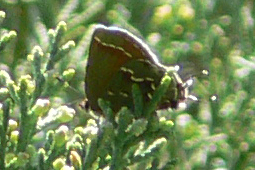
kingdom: Animalia
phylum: Arthropoda
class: Insecta
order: Lepidoptera
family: Lycaenidae
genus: Mitoura
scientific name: Mitoura gryneus
